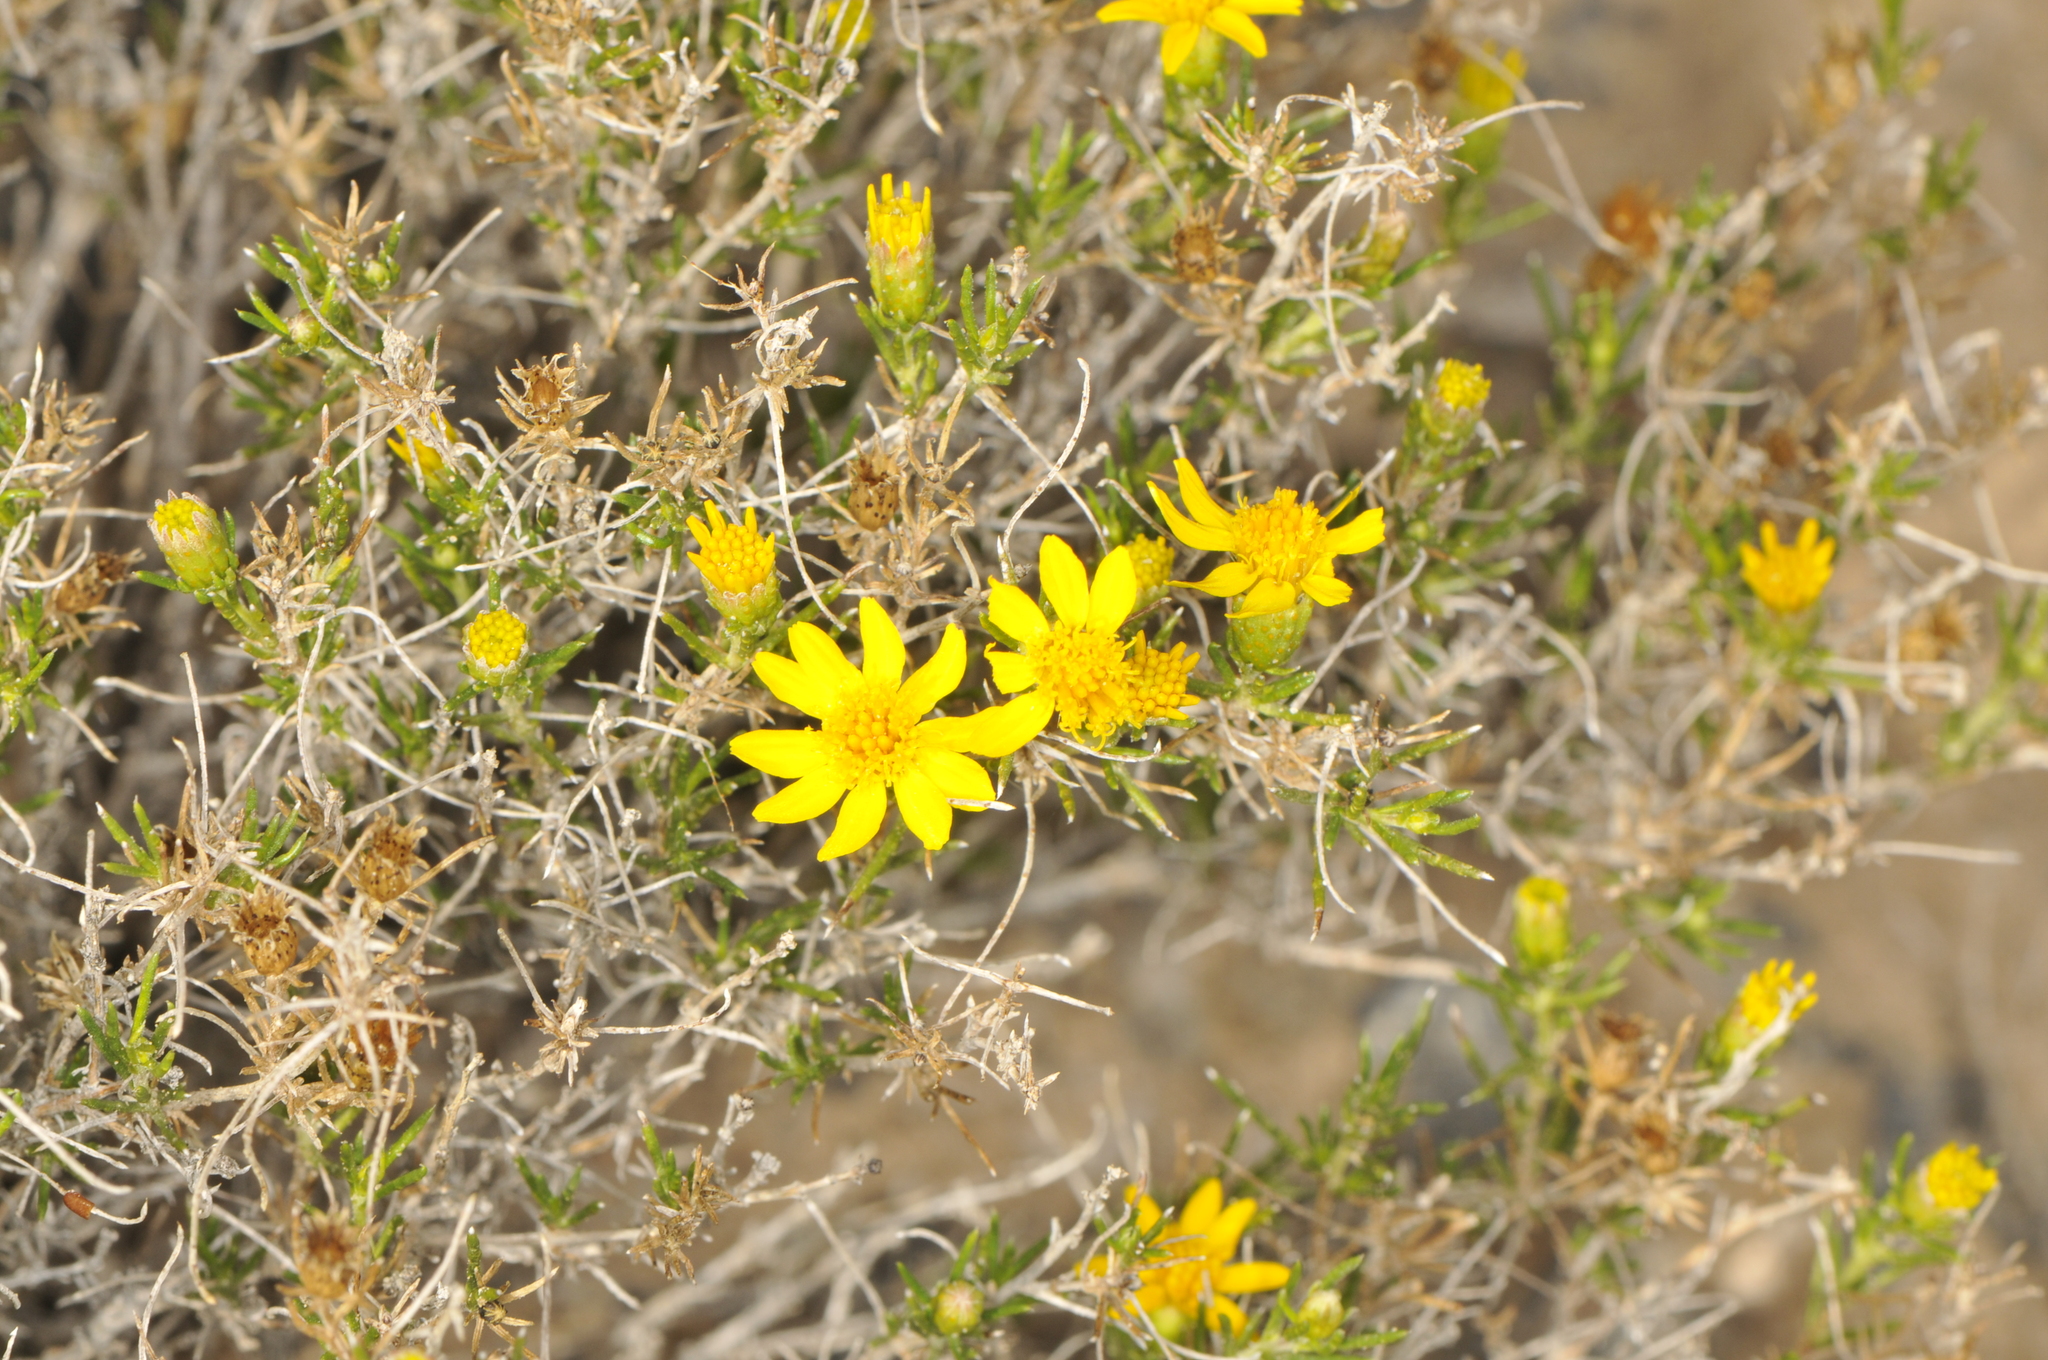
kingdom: Plantae
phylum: Tracheophyta
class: Magnoliopsida
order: Asterales
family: Asteraceae
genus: Thymophylla
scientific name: Thymophylla acerosa
